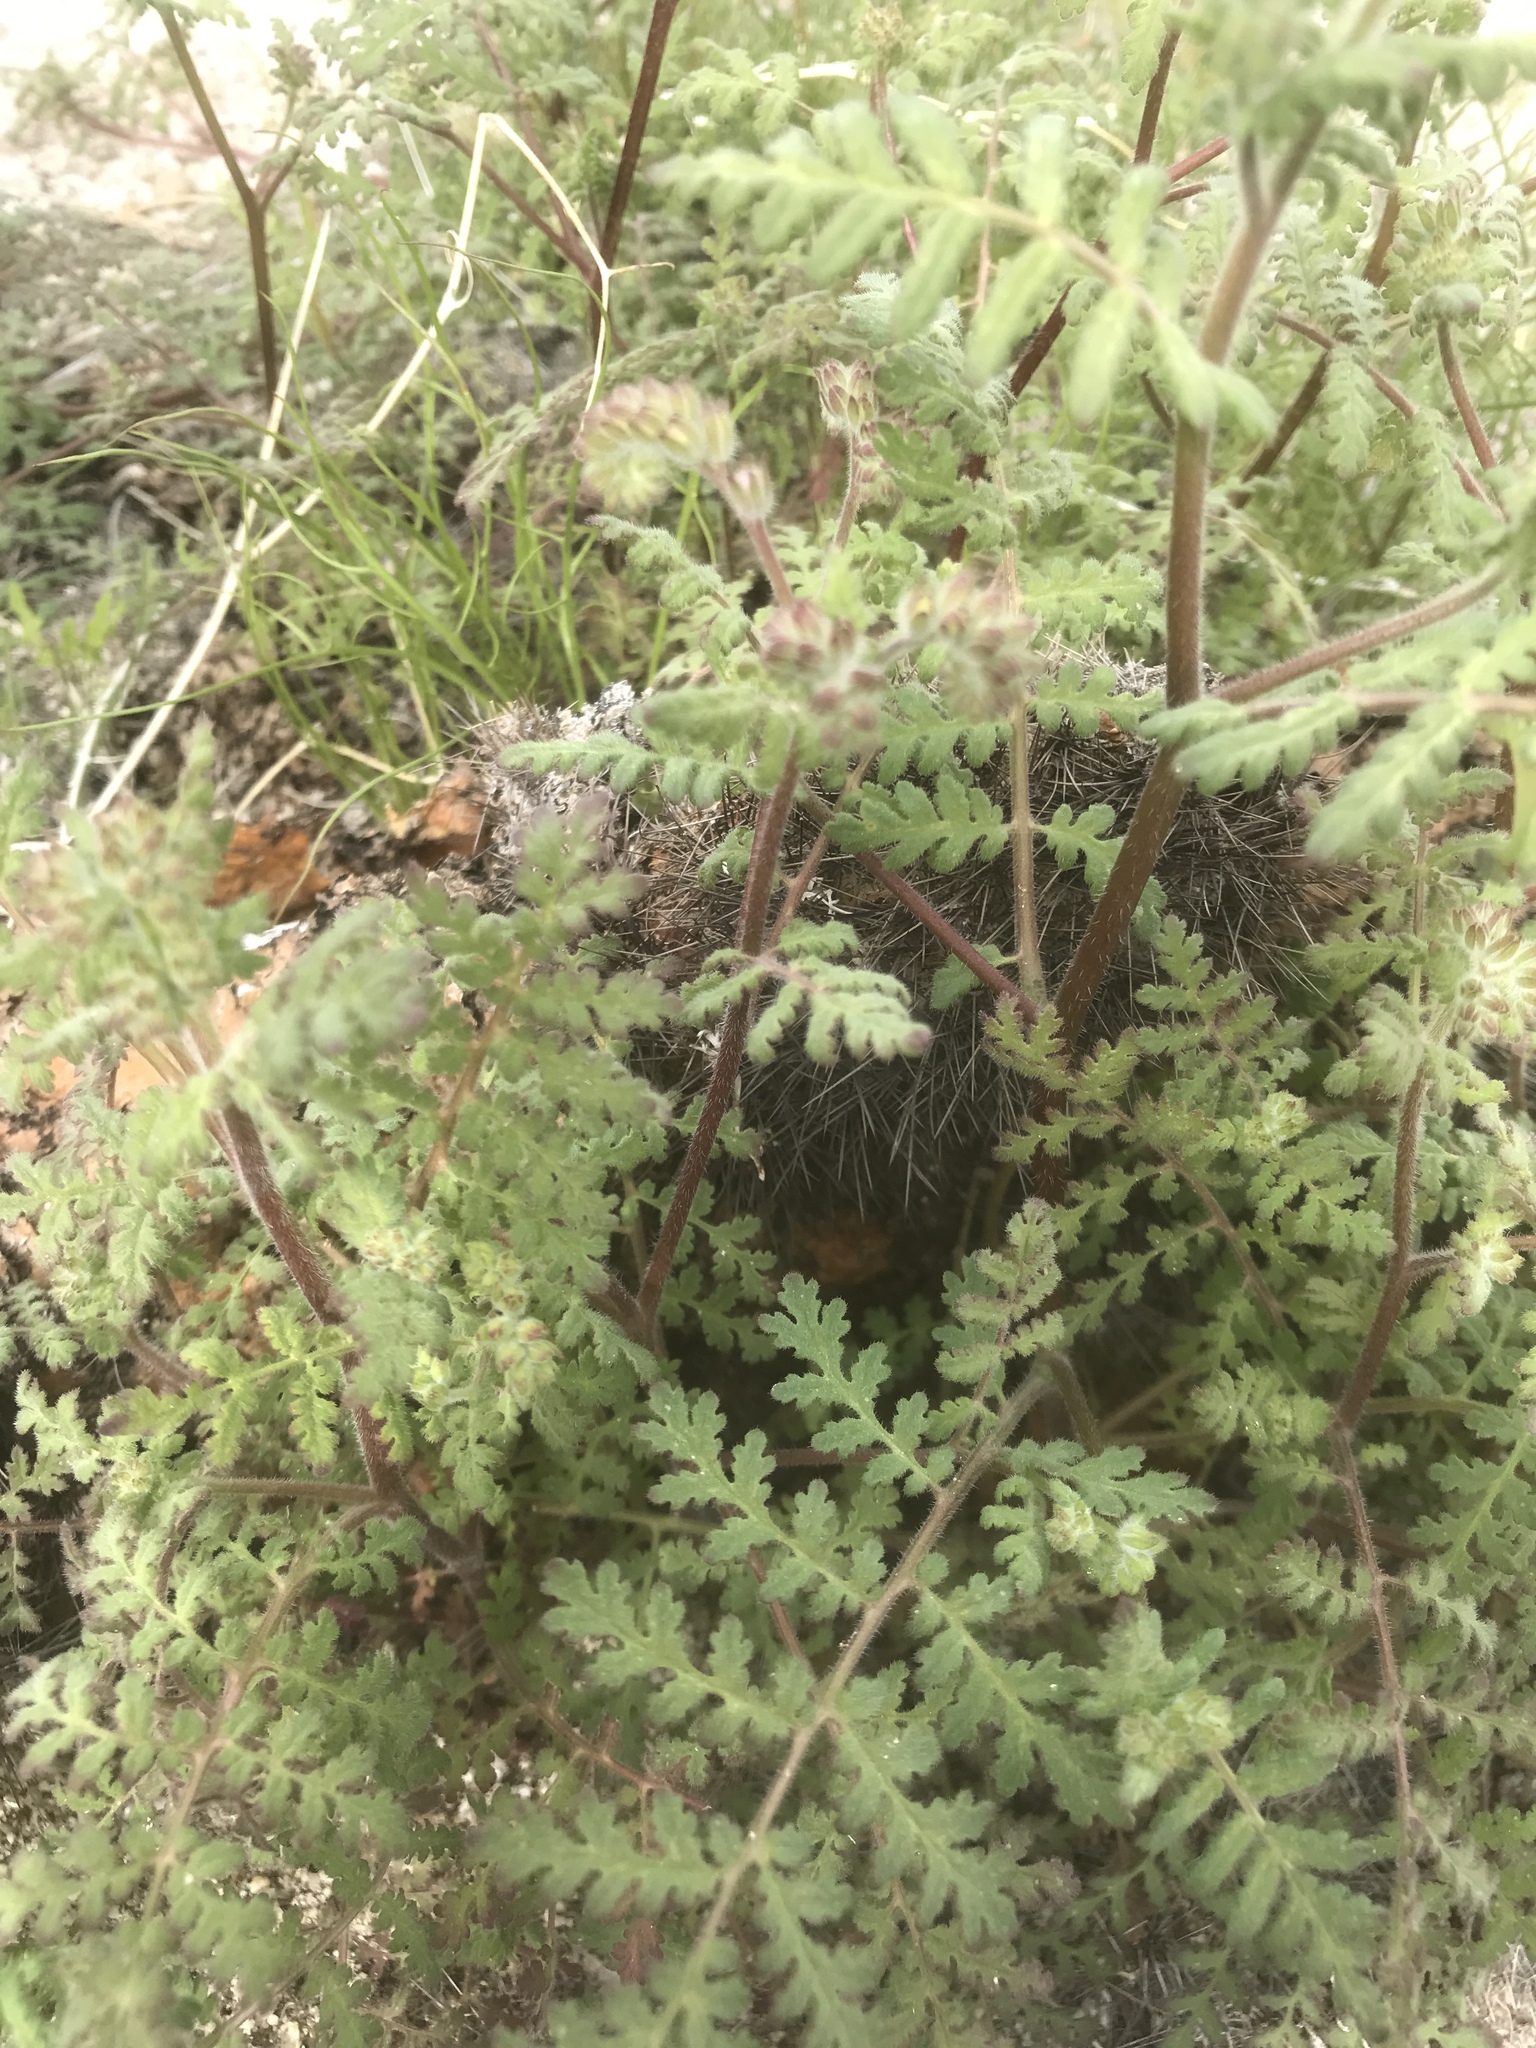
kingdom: Plantae
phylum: Tracheophyta
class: Magnoliopsida
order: Boraginales
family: Hydrophyllaceae
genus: Phacelia
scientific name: Phacelia distans
